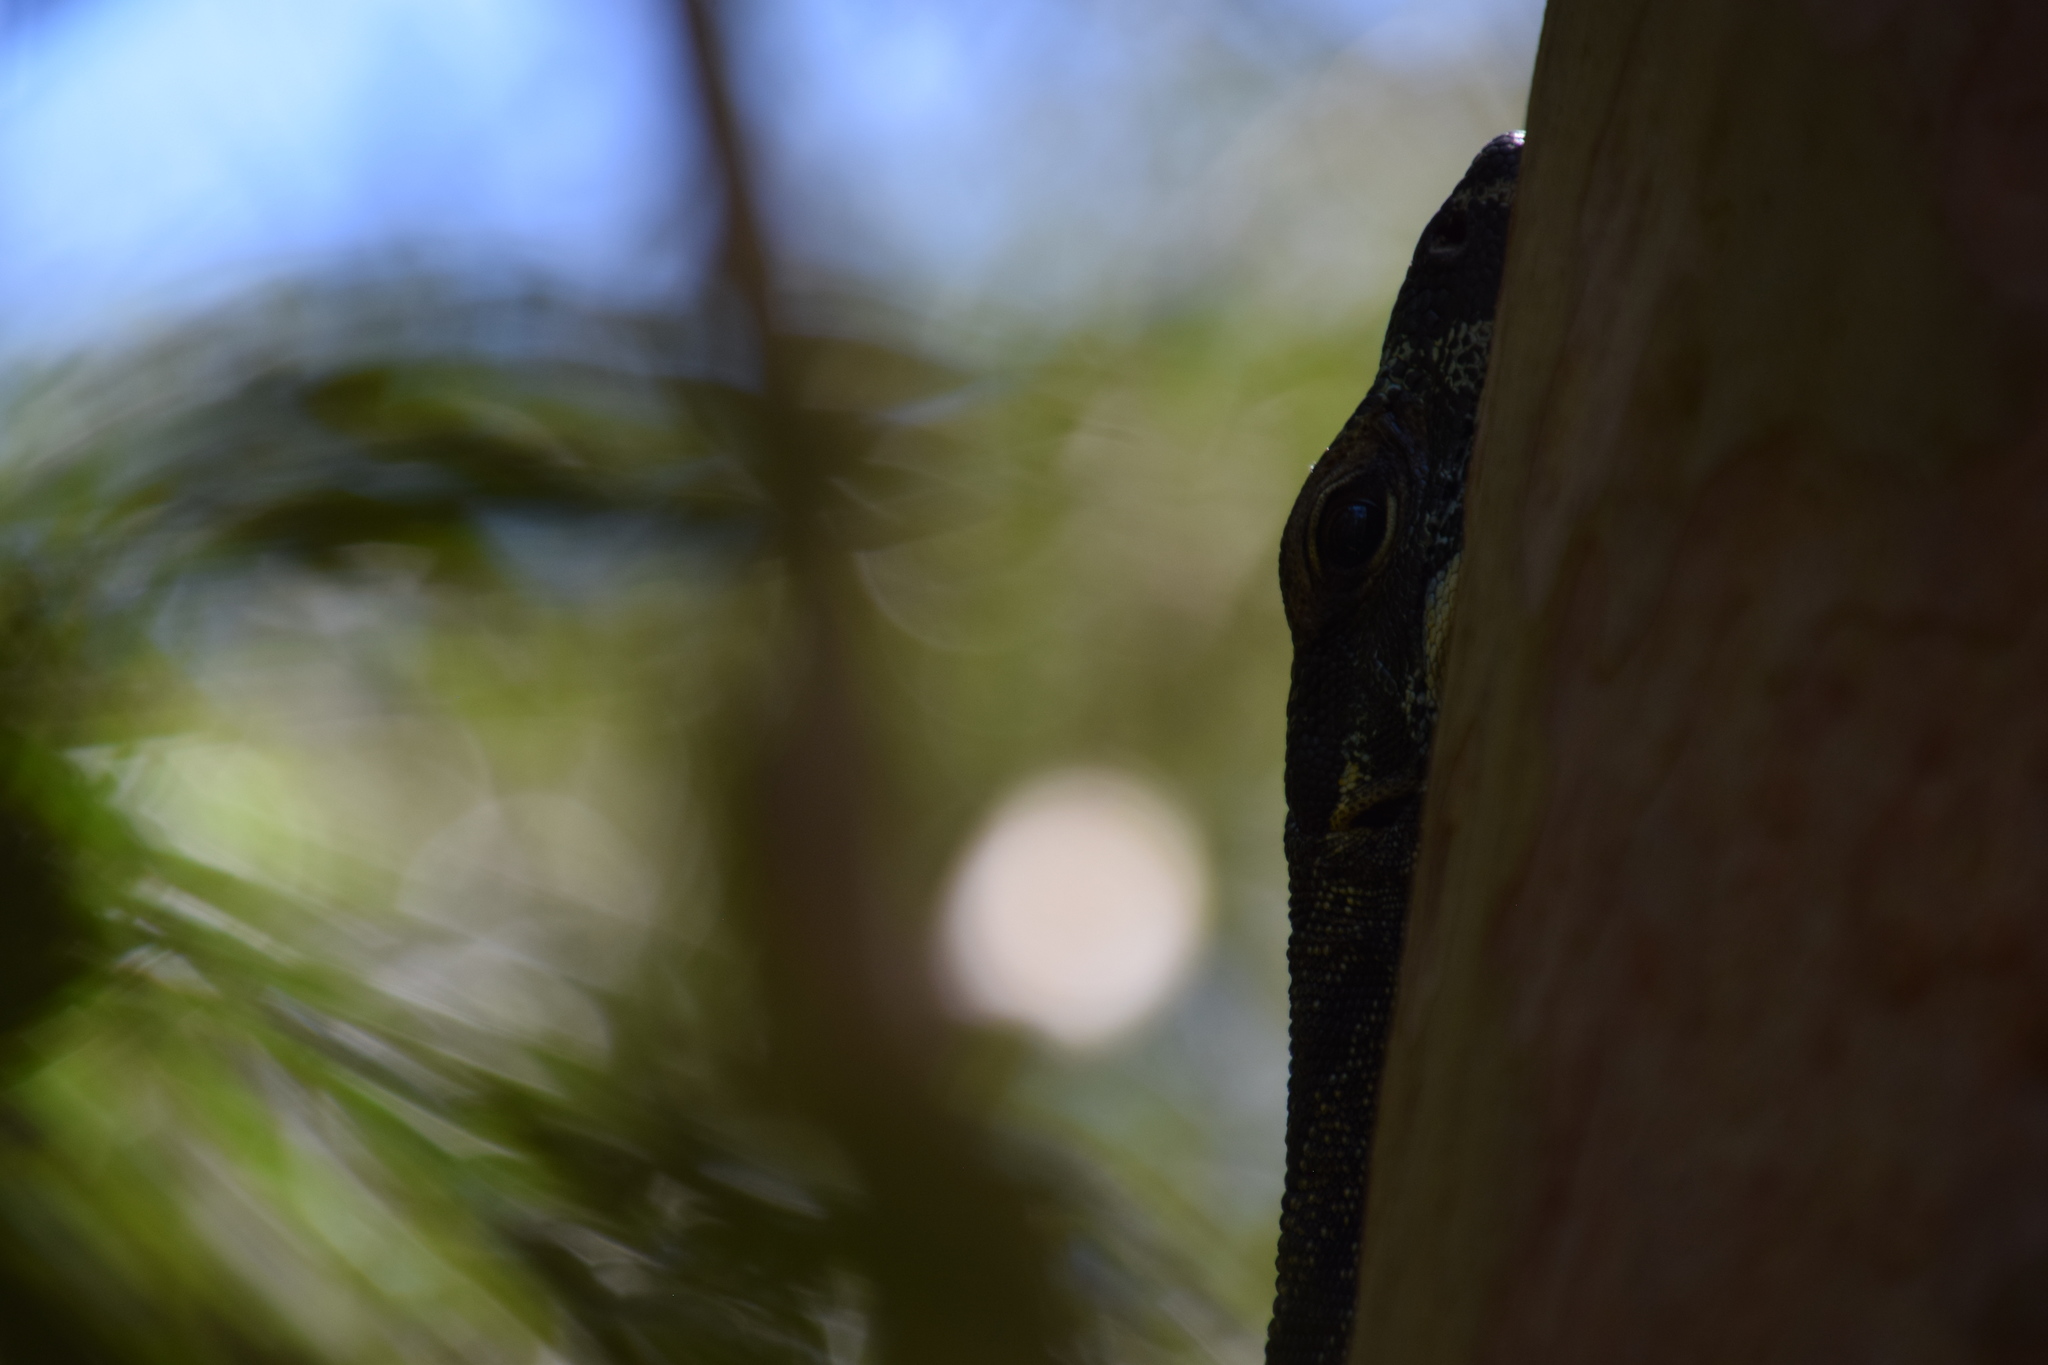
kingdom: Animalia
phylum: Chordata
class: Squamata
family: Varanidae
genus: Varanus
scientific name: Varanus varius
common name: Lace monitor
